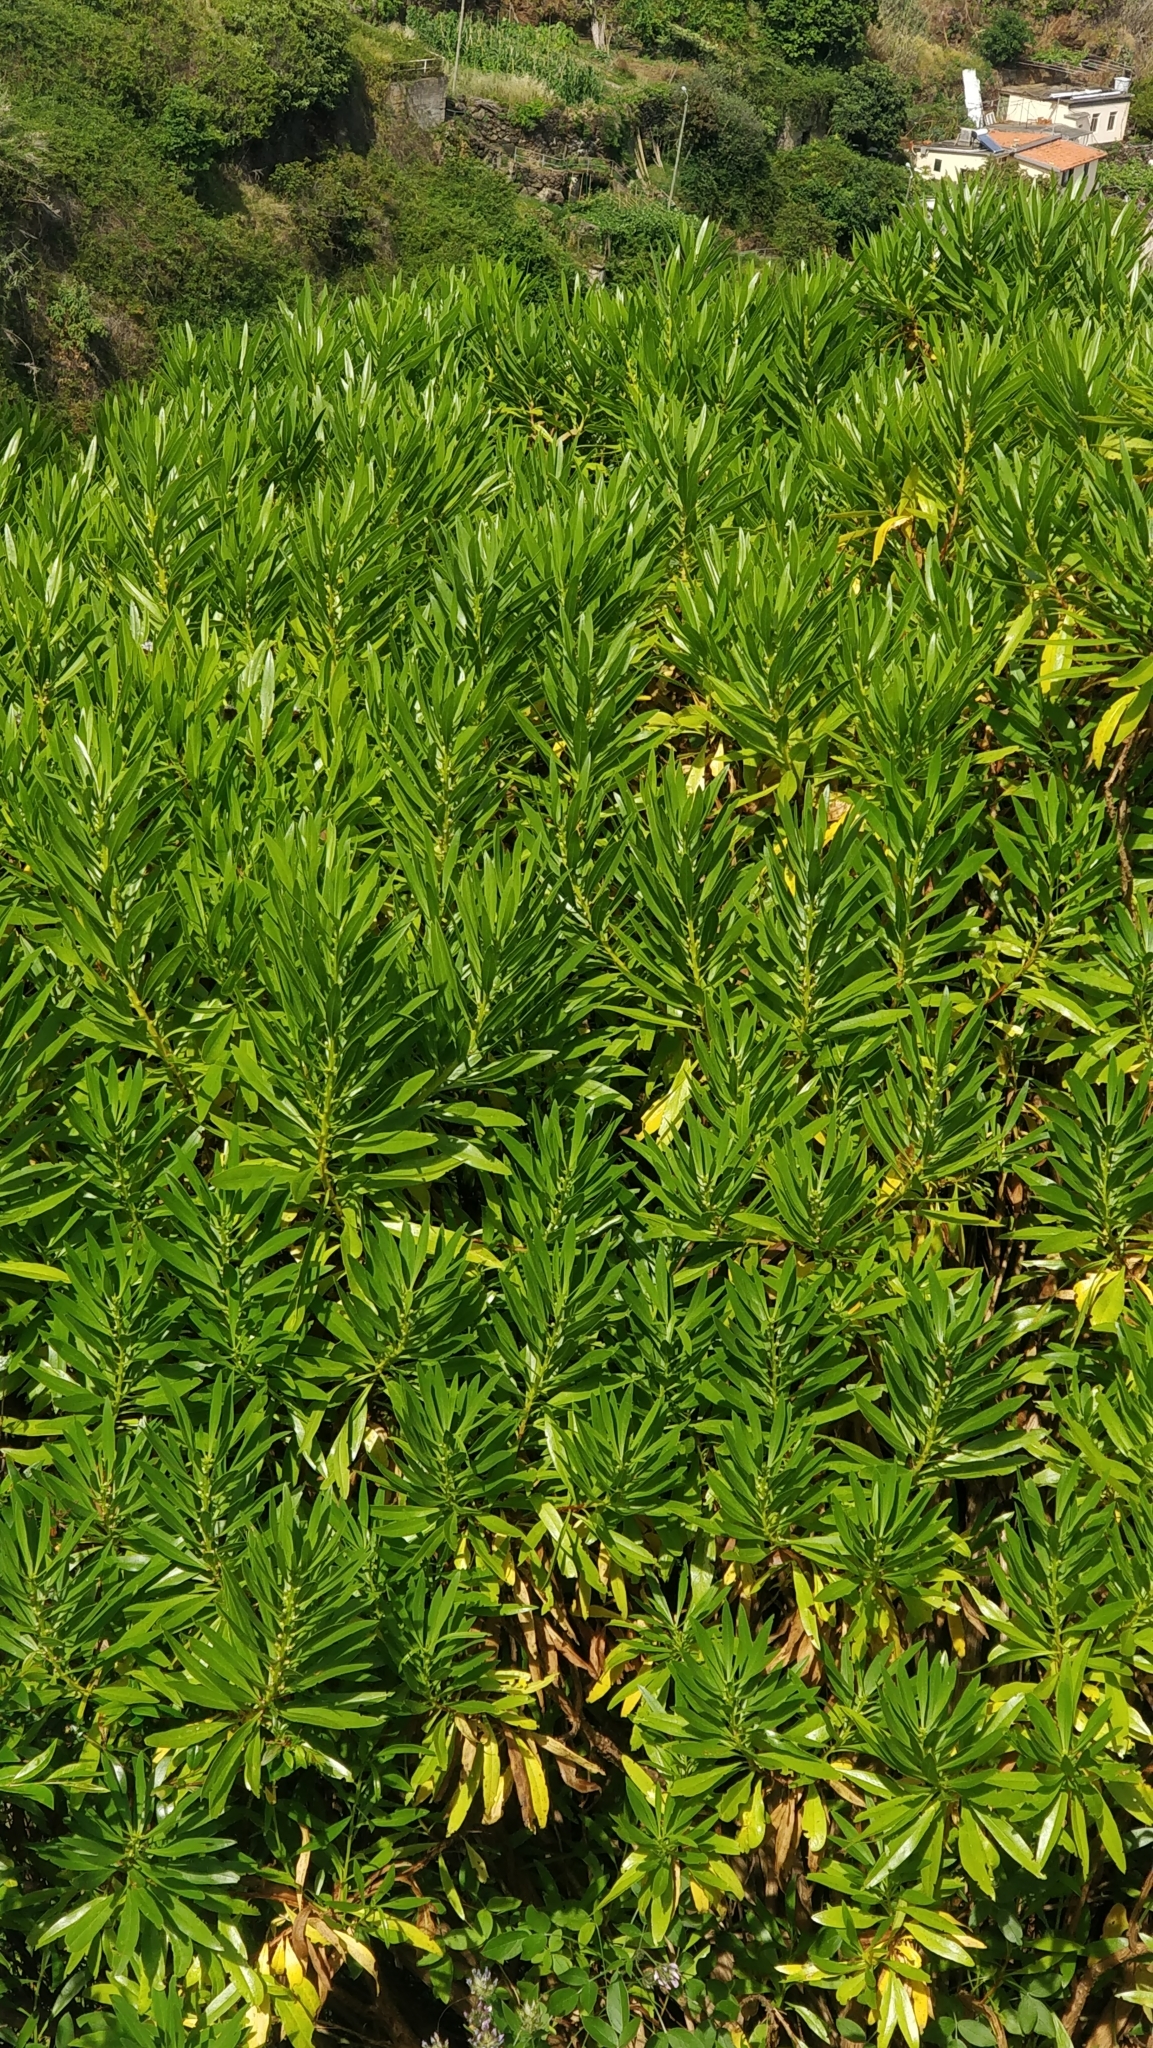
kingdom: Plantae
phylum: Tracheophyta
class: Magnoliopsida
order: Lamiales
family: Plantaginaceae
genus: Globularia
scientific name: Globularia salicina
